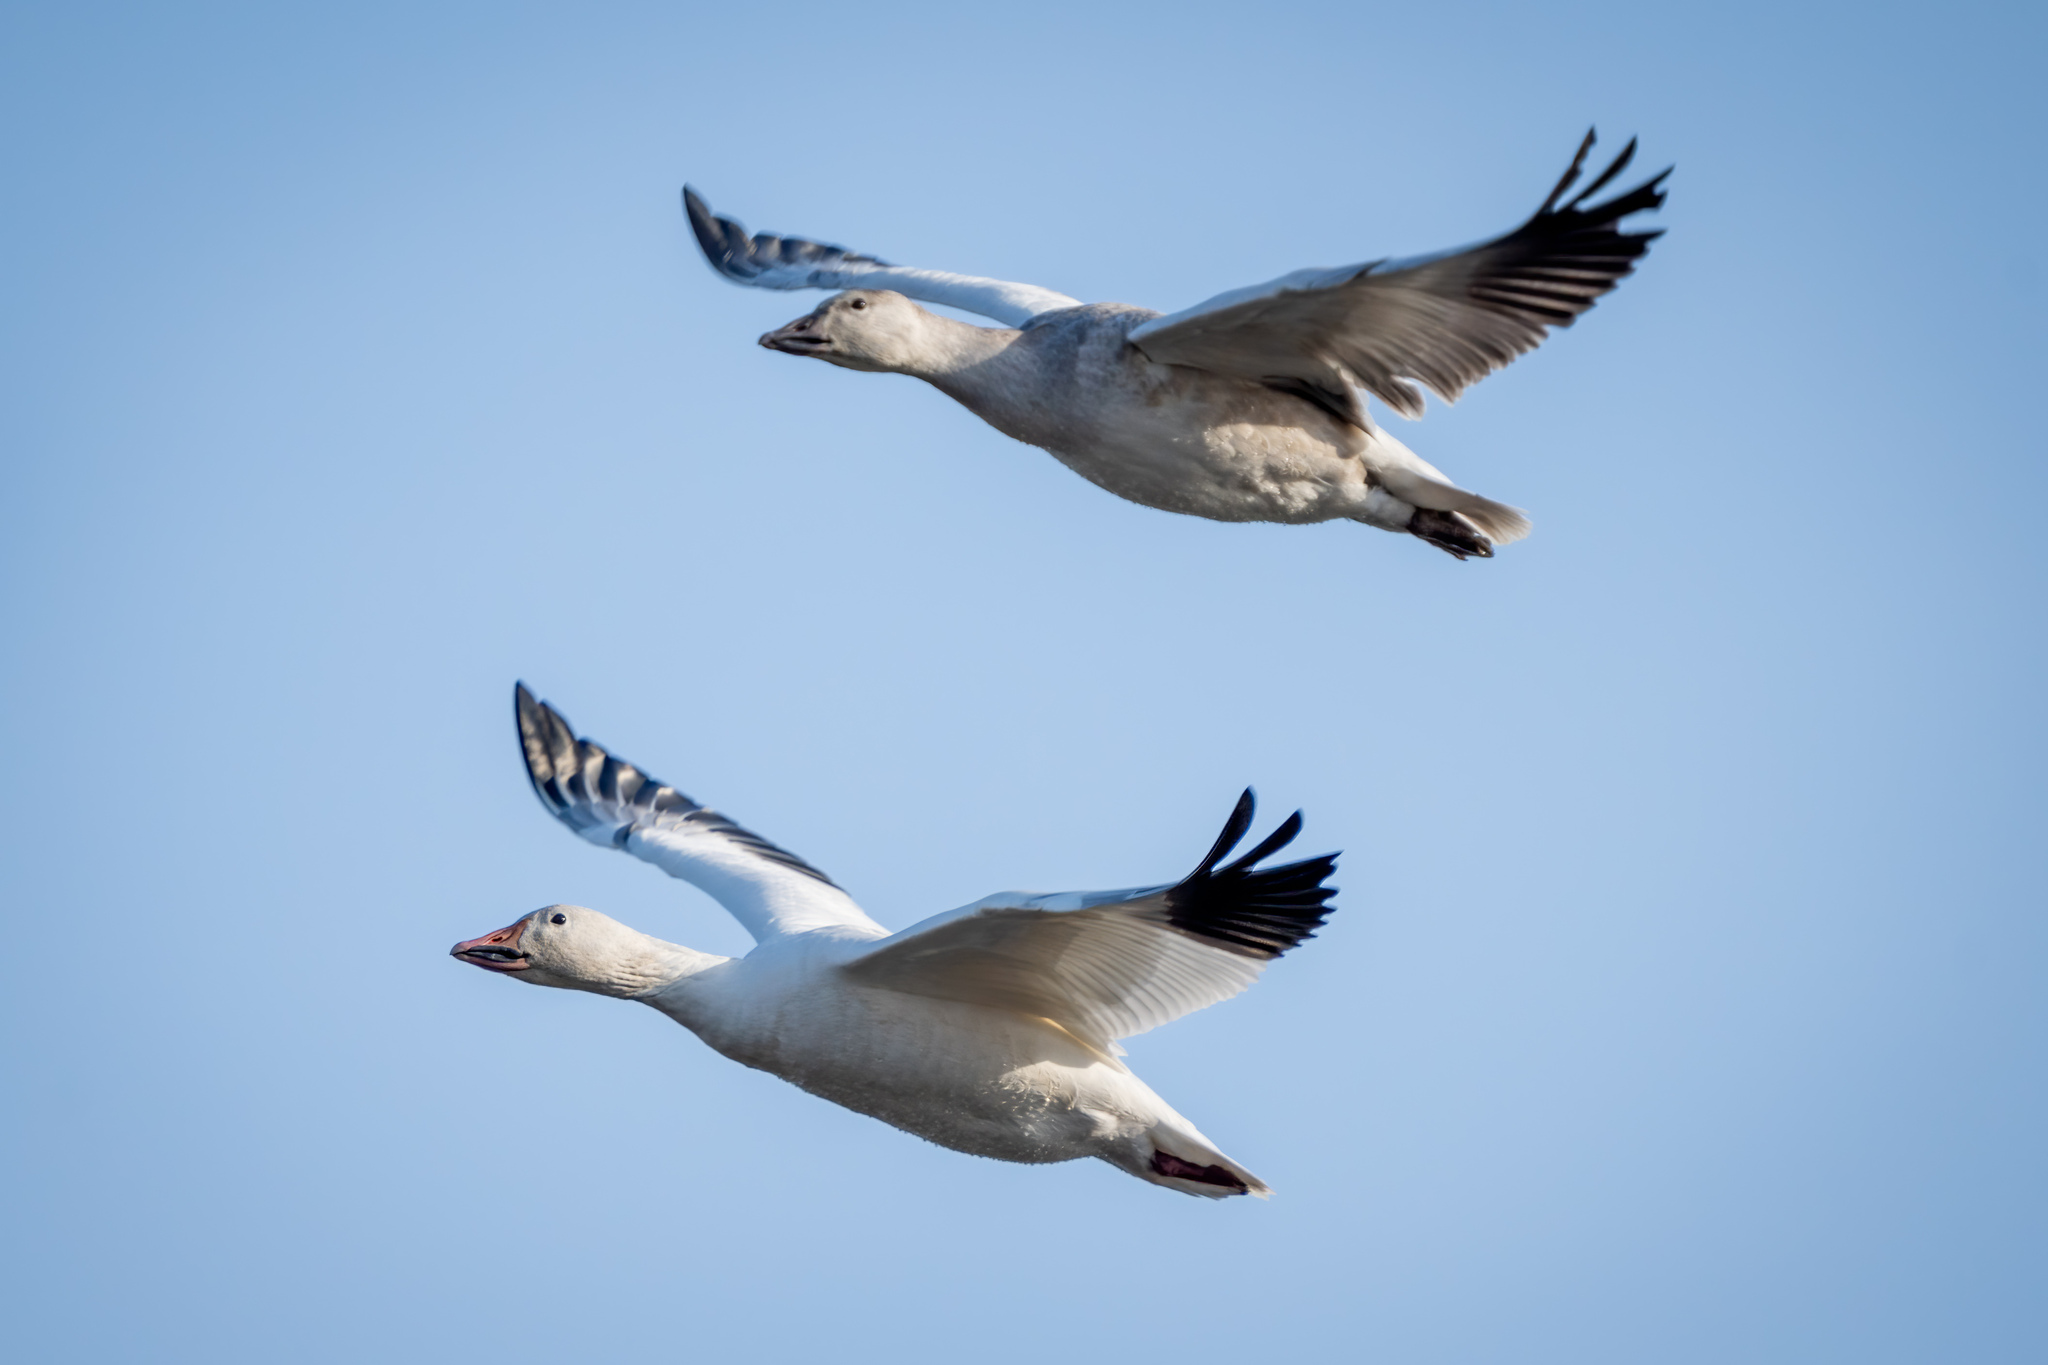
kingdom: Animalia
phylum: Chordata
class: Aves
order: Anseriformes
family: Anatidae
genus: Anser
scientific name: Anser caerulescens
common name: Snow goose
